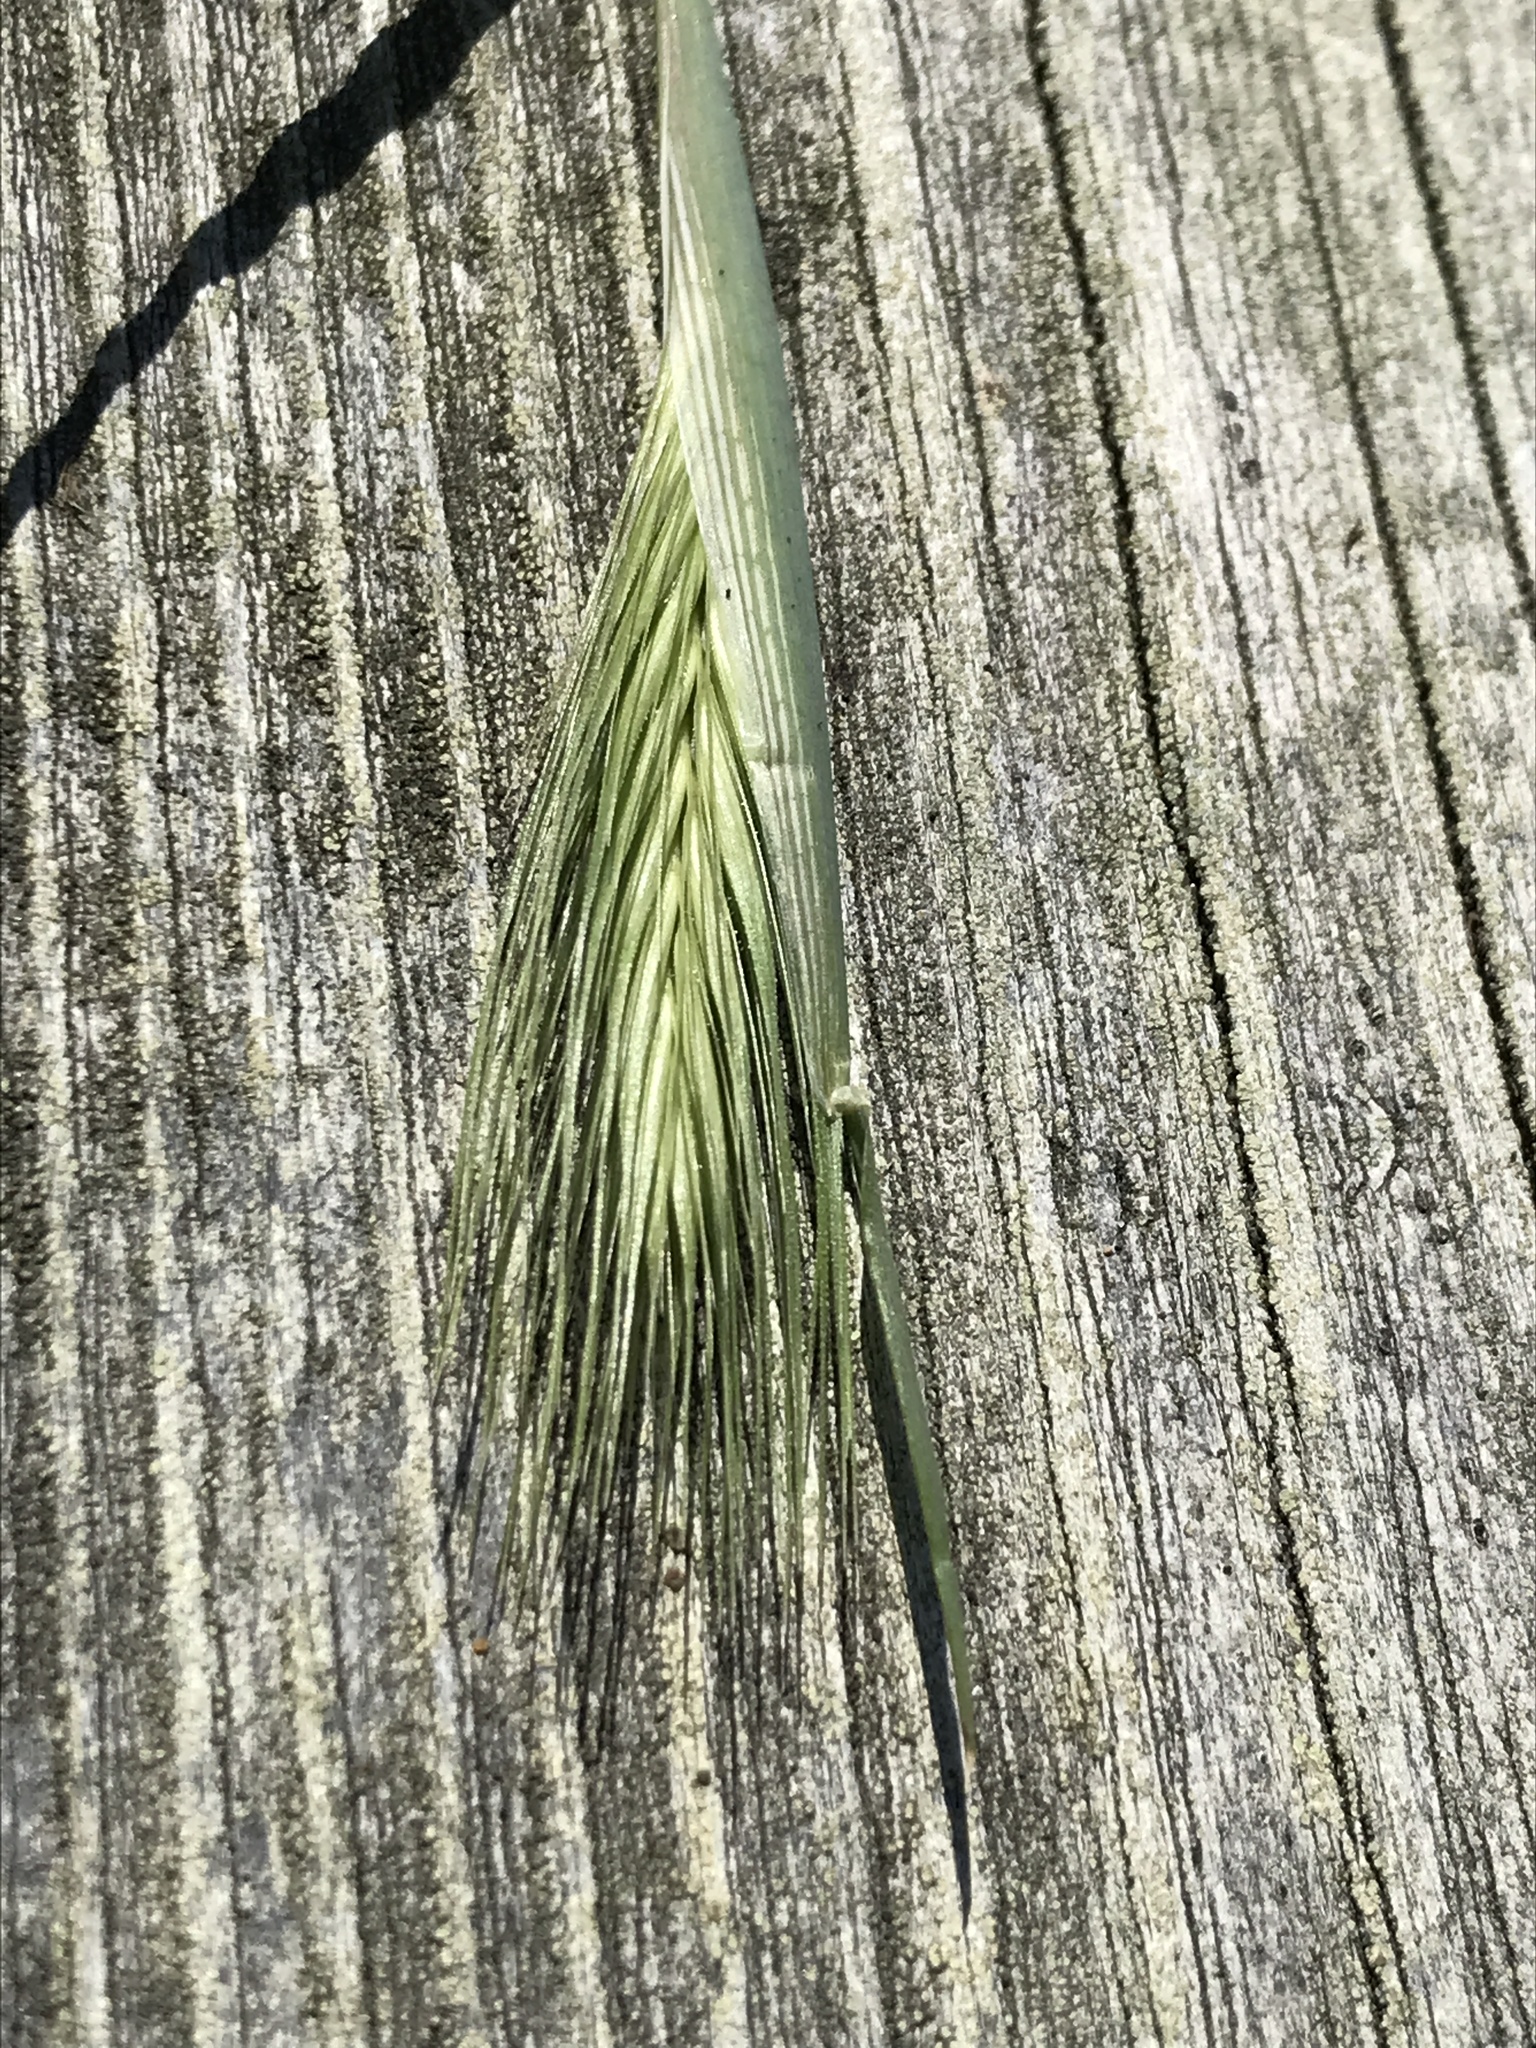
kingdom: Plantae
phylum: Tracheophyta
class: Liliopsida
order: Poales
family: Poaceae
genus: Hordeum
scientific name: Hordeum murinum
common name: Wall barley
